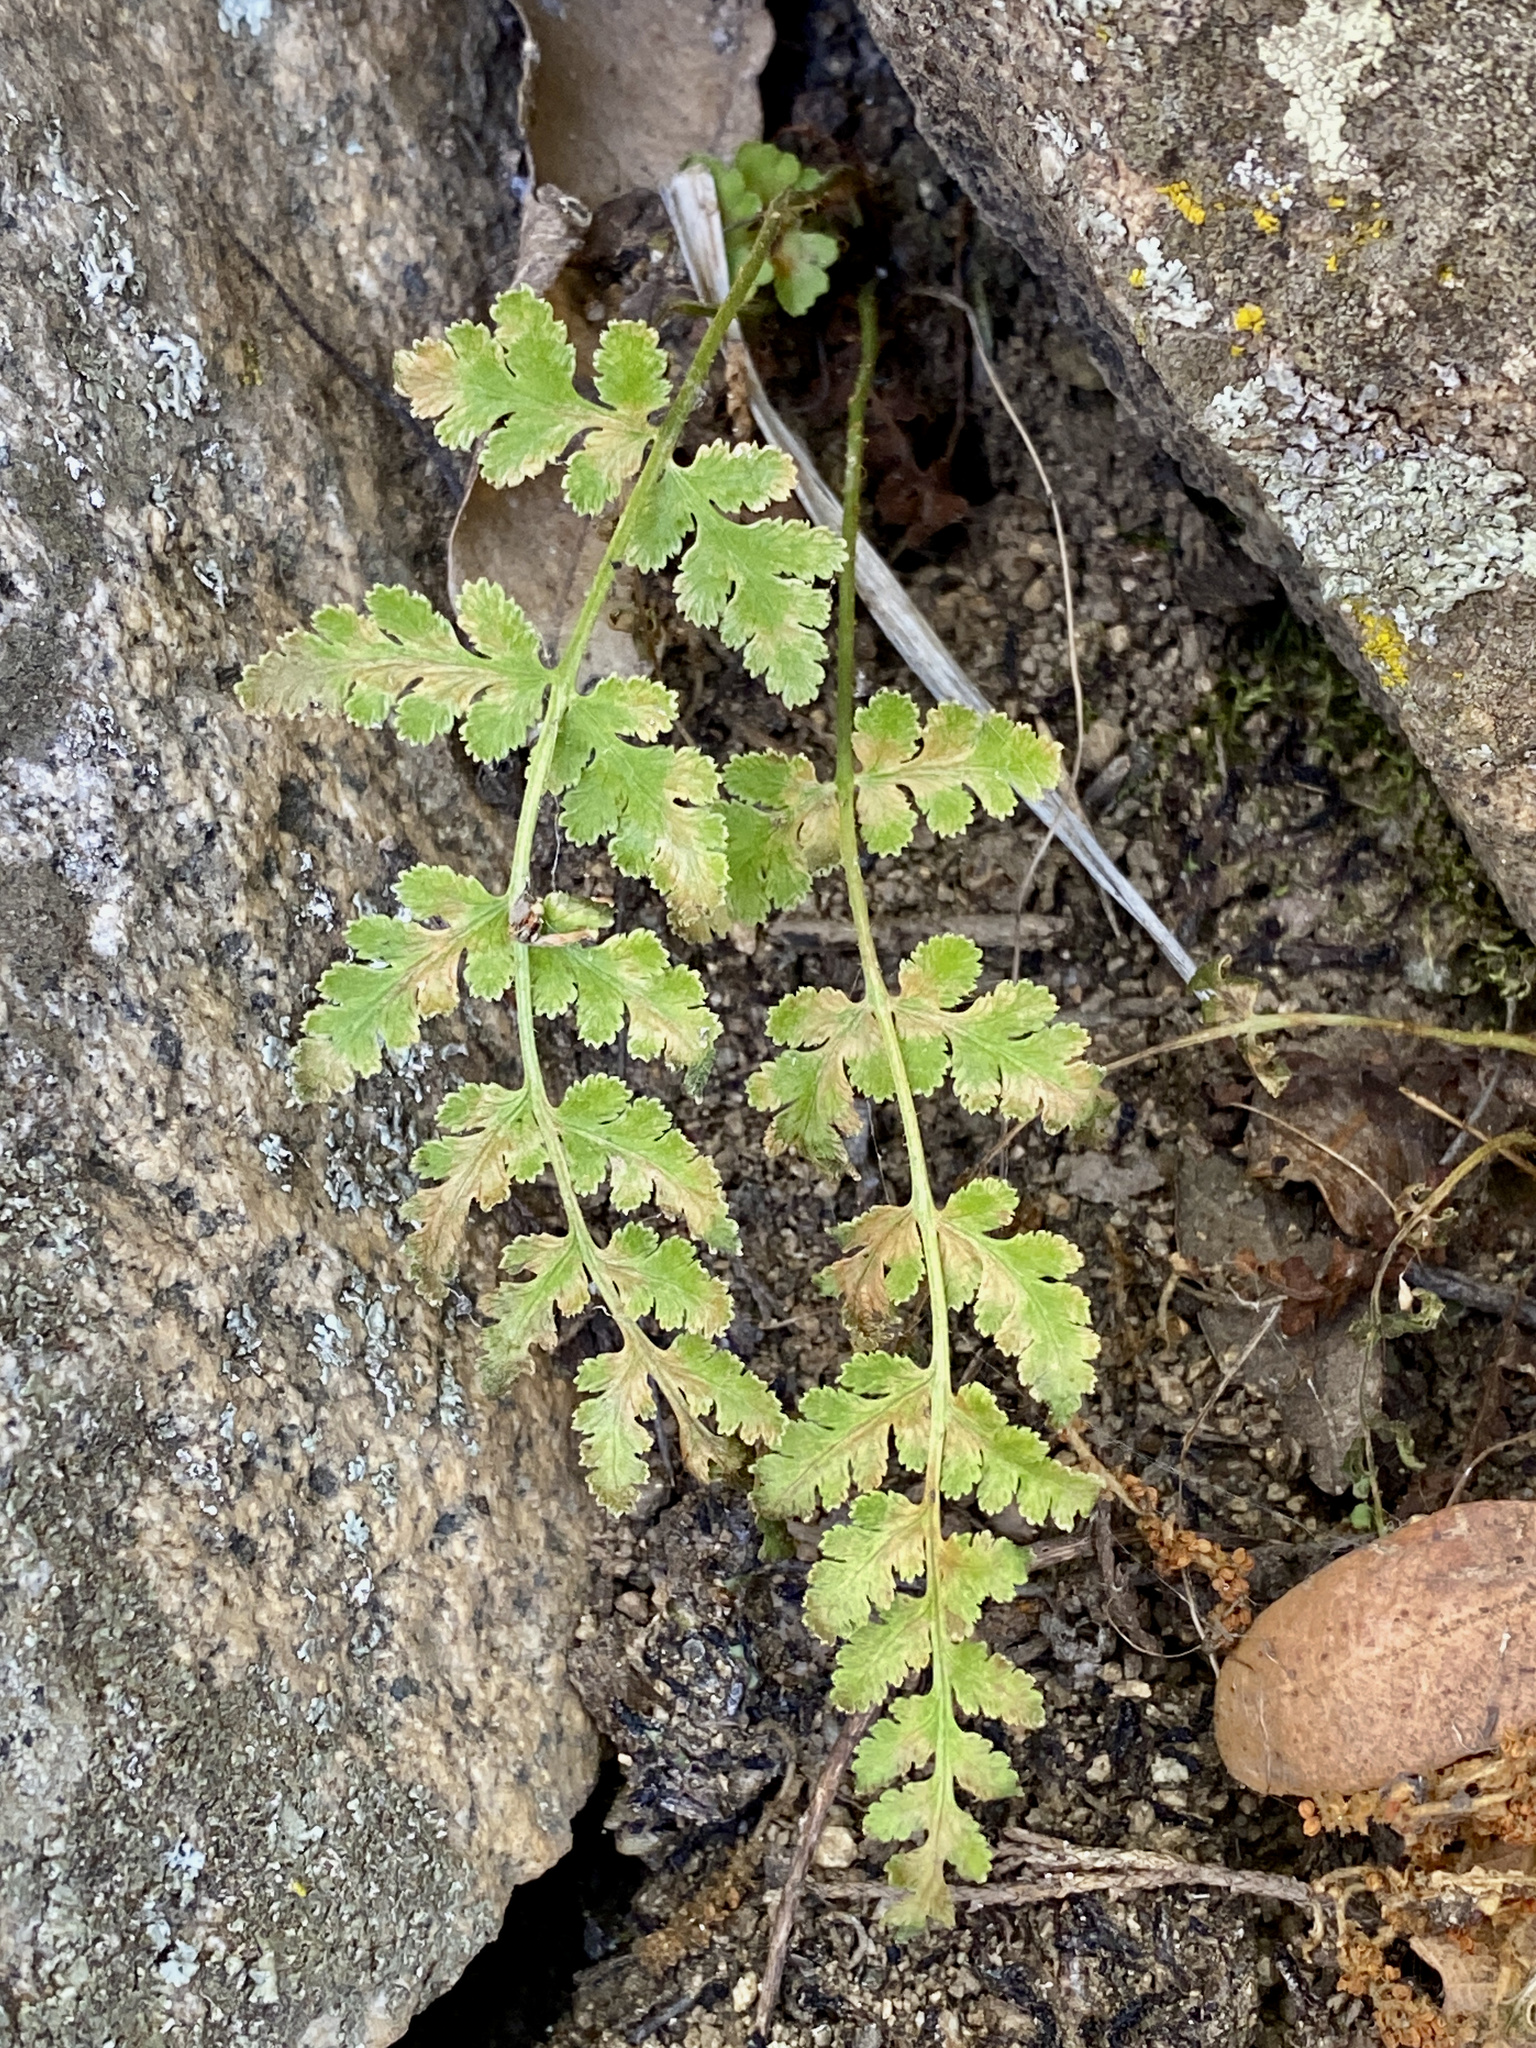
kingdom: Plantae
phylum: Tracheophyta
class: Polypodiopsida
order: Polypodiales
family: Woodsiaceae
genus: Physematium
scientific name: Physematium cochisense
